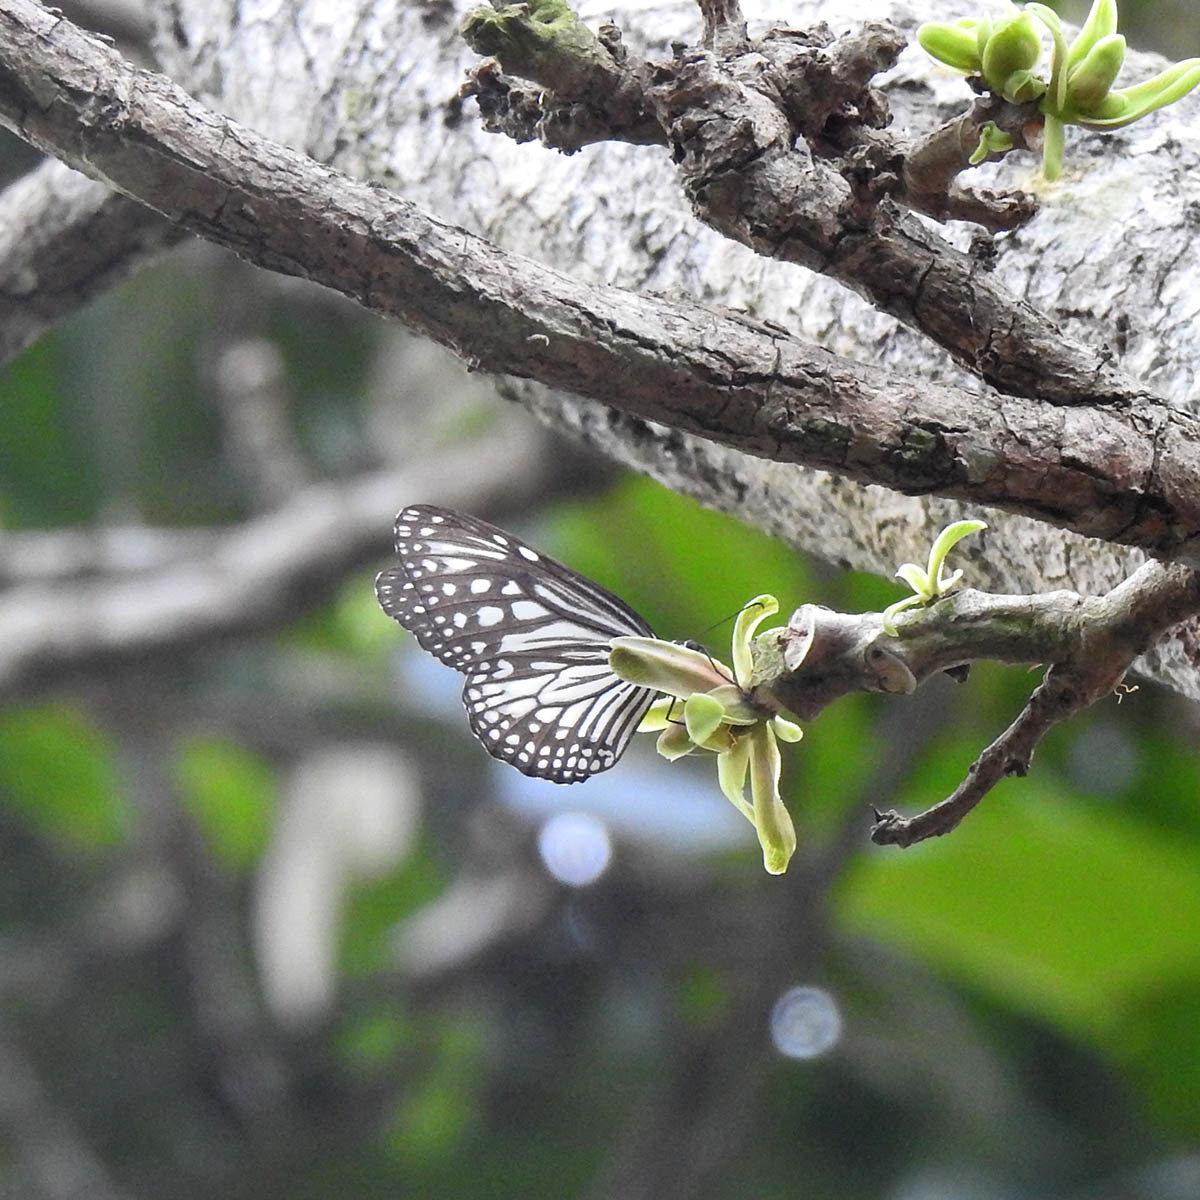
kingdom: Animalia
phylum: Arthropoda
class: Insecta
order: Lepidoptera
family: Nymphalidae
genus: Parantica
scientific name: Parantica aglea
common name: Glassy tiger
